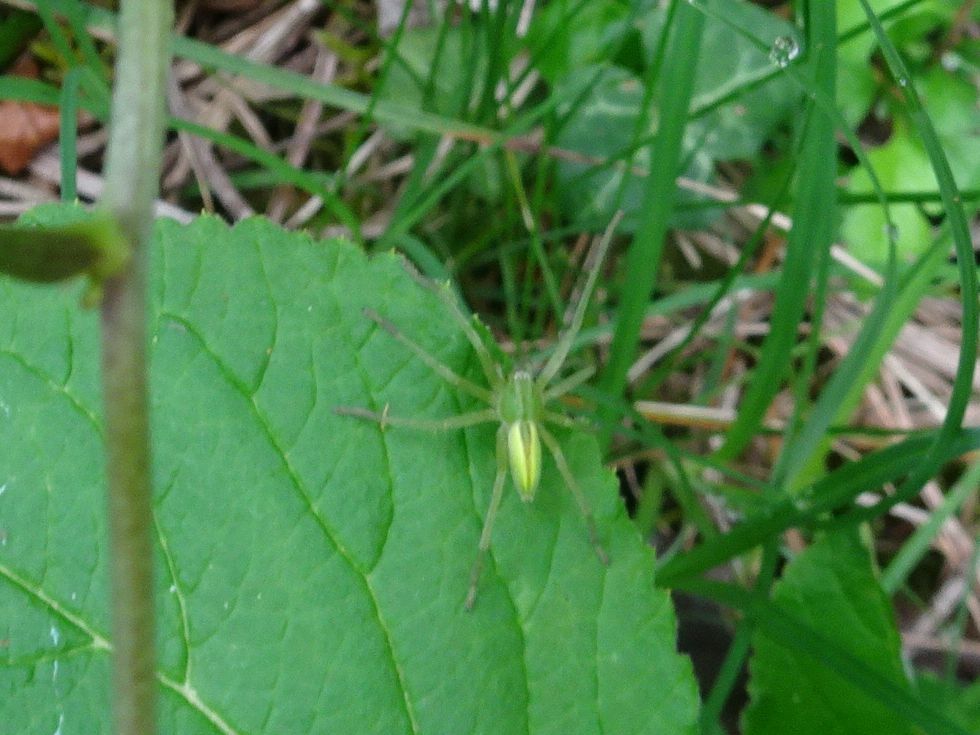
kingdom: Animalia
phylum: Arthropoda
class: Arachnida
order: Araneae
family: Sparassidae
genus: Micrommata
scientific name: Micrommata virescens
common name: Green spider
